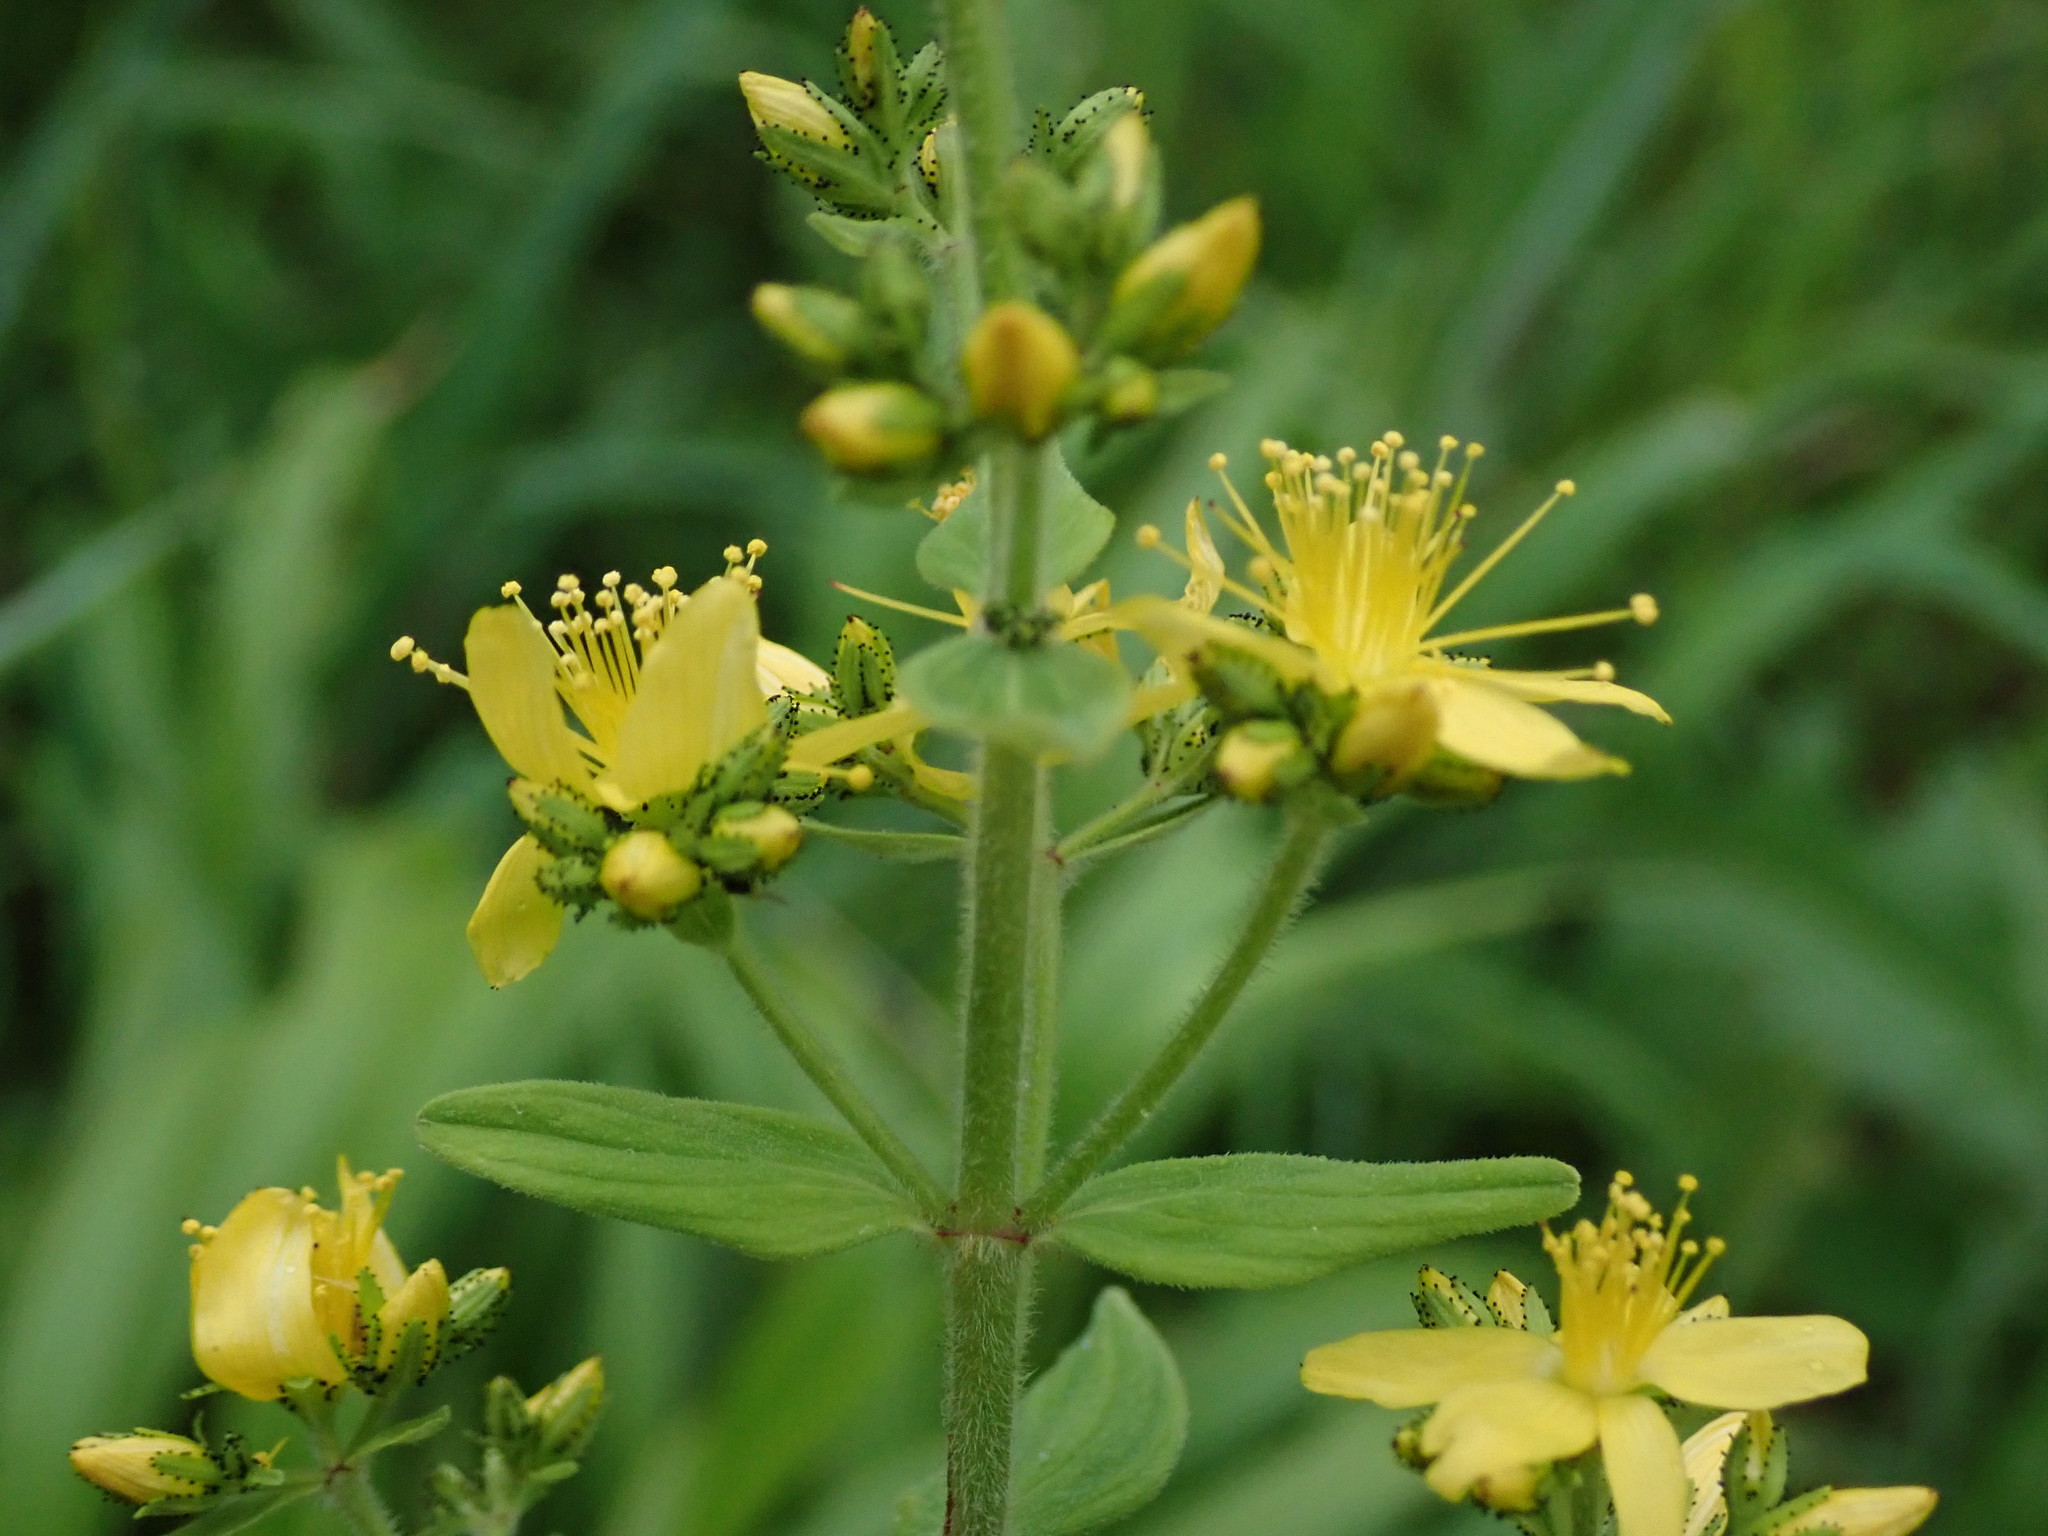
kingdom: Plantae
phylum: Tracheophyta
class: Magnoliopsida
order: Malpighiales
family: Hypericaceae
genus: Hypericum
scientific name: Hypericum hirsutum
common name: Hairy st. john's-wort
